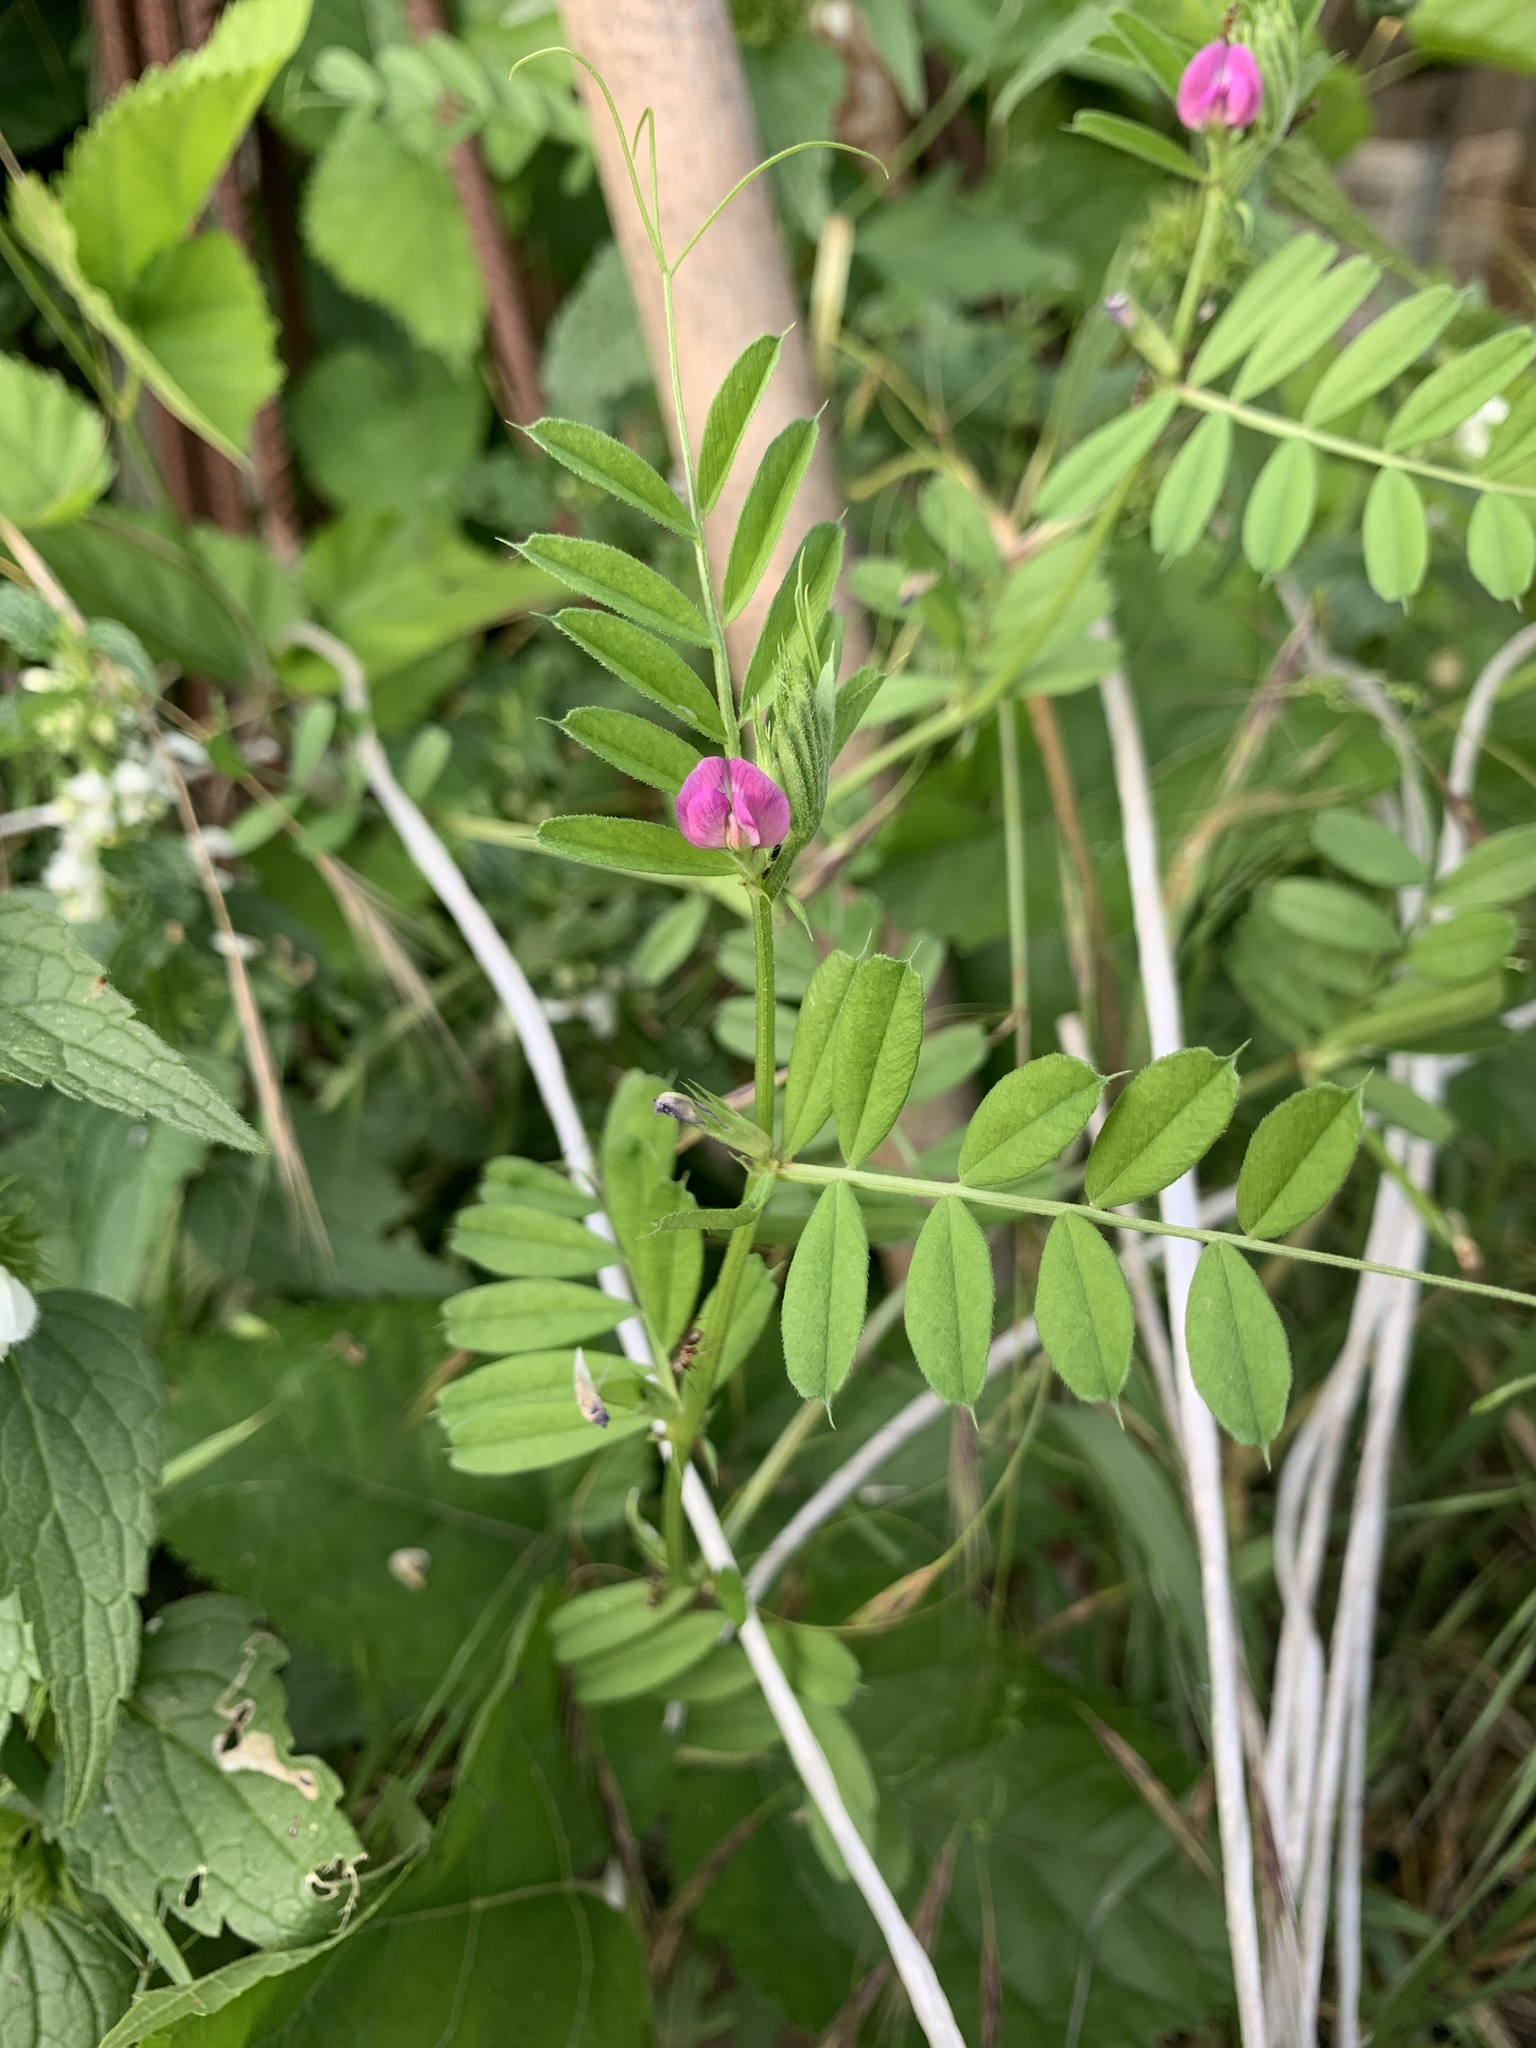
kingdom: Plantae
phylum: Tracheophyta
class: Magnoliopsida
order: Fabales
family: Fabaceae
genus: Vicia
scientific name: Vicia sativa
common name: Garden vetch
